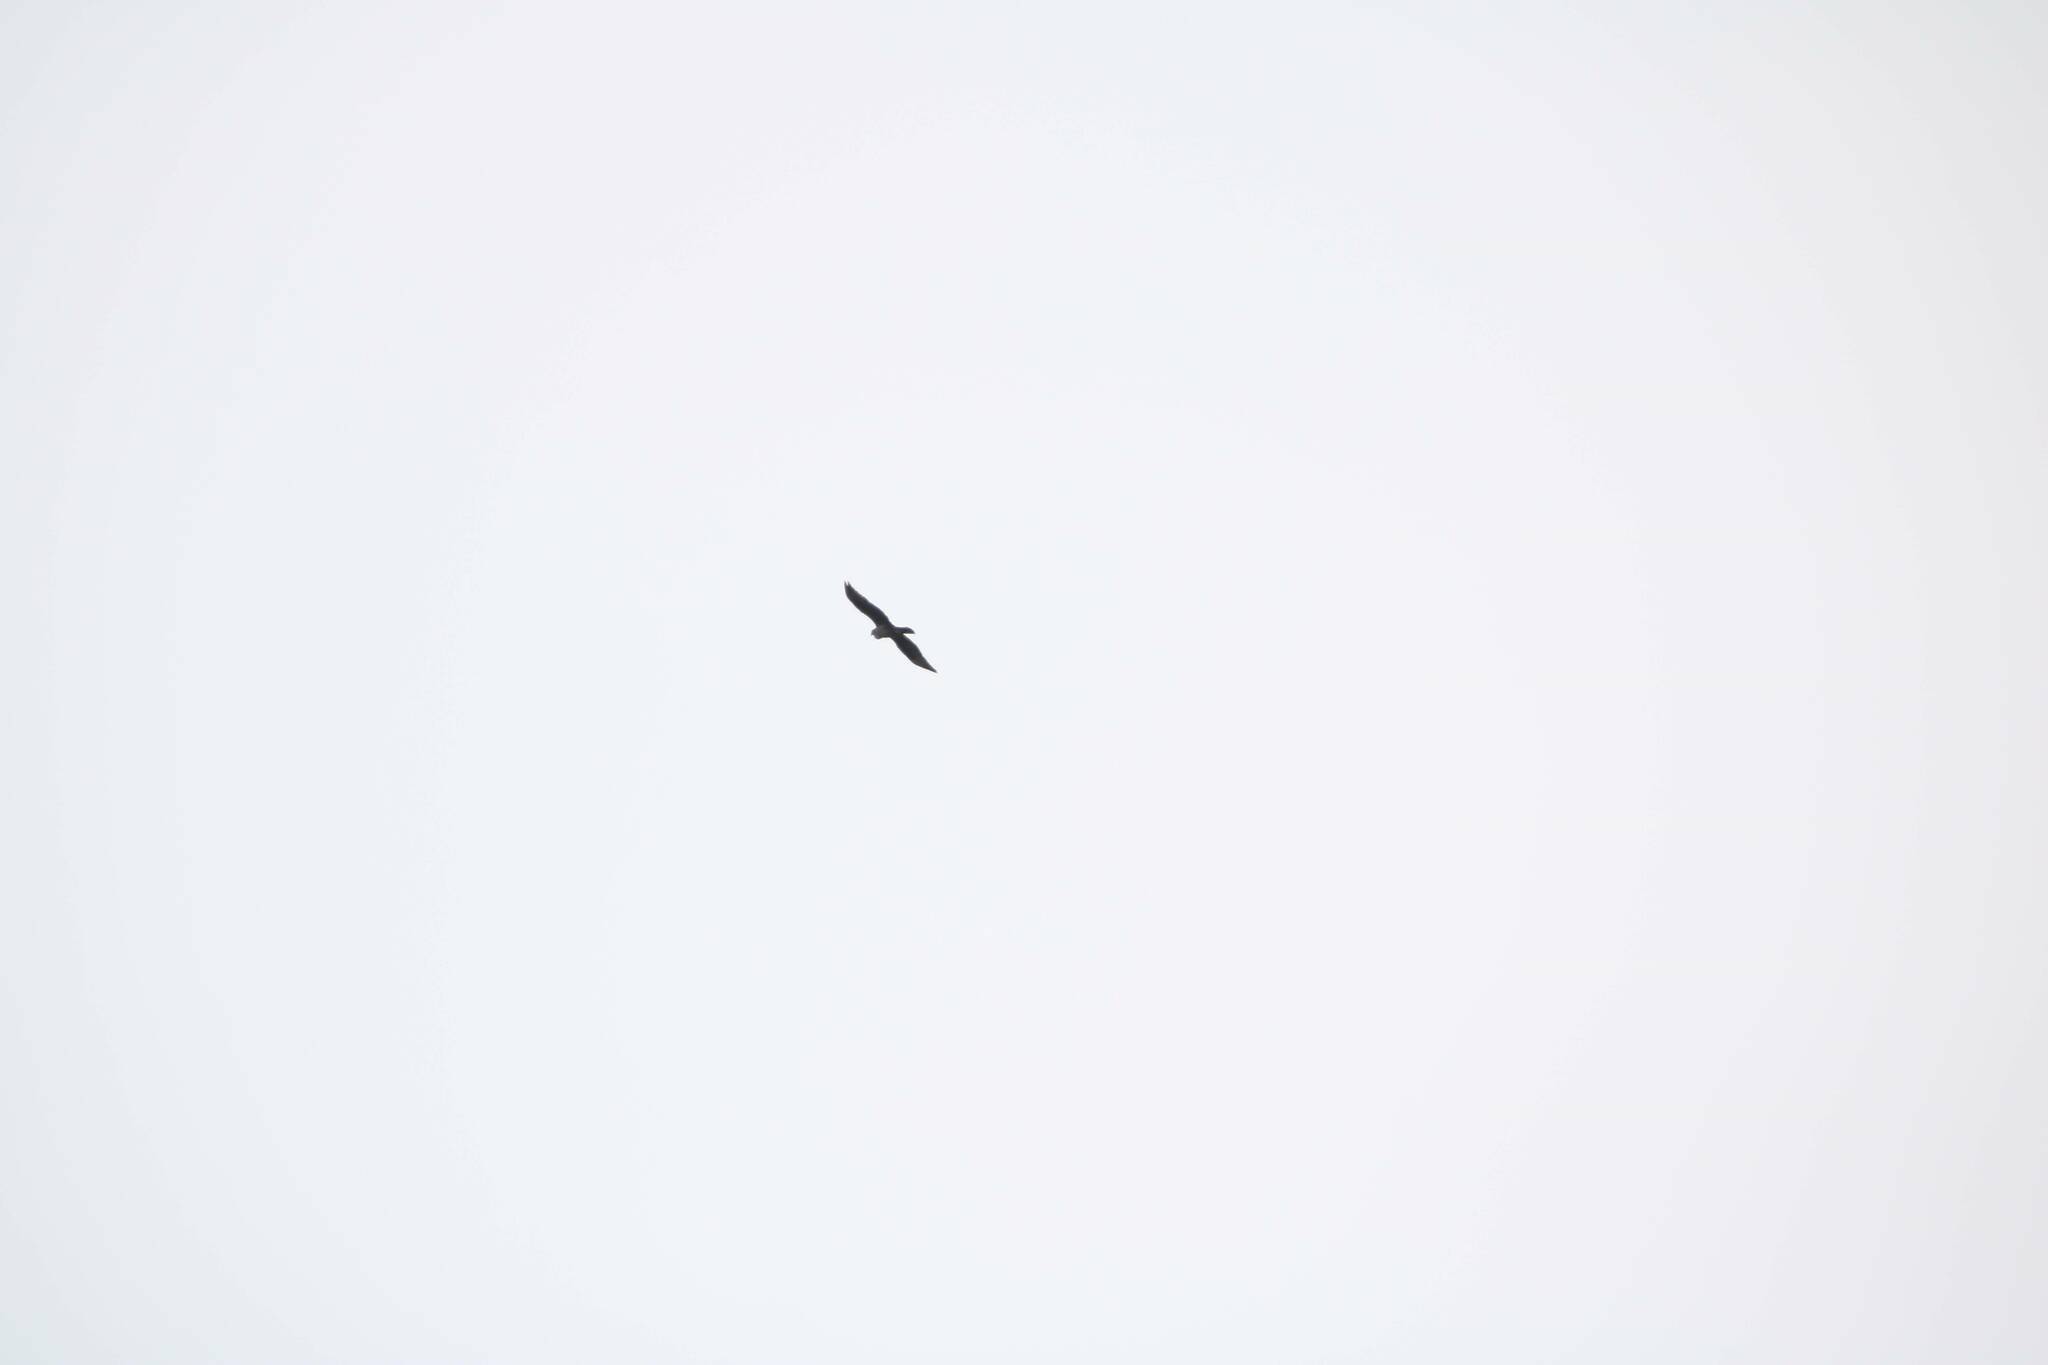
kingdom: Animalia
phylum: Chordata
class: Aves
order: Accipitriformes
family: Accipitridae
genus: Aquila
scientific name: Aquila fasciata
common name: Bonelli's eagle
